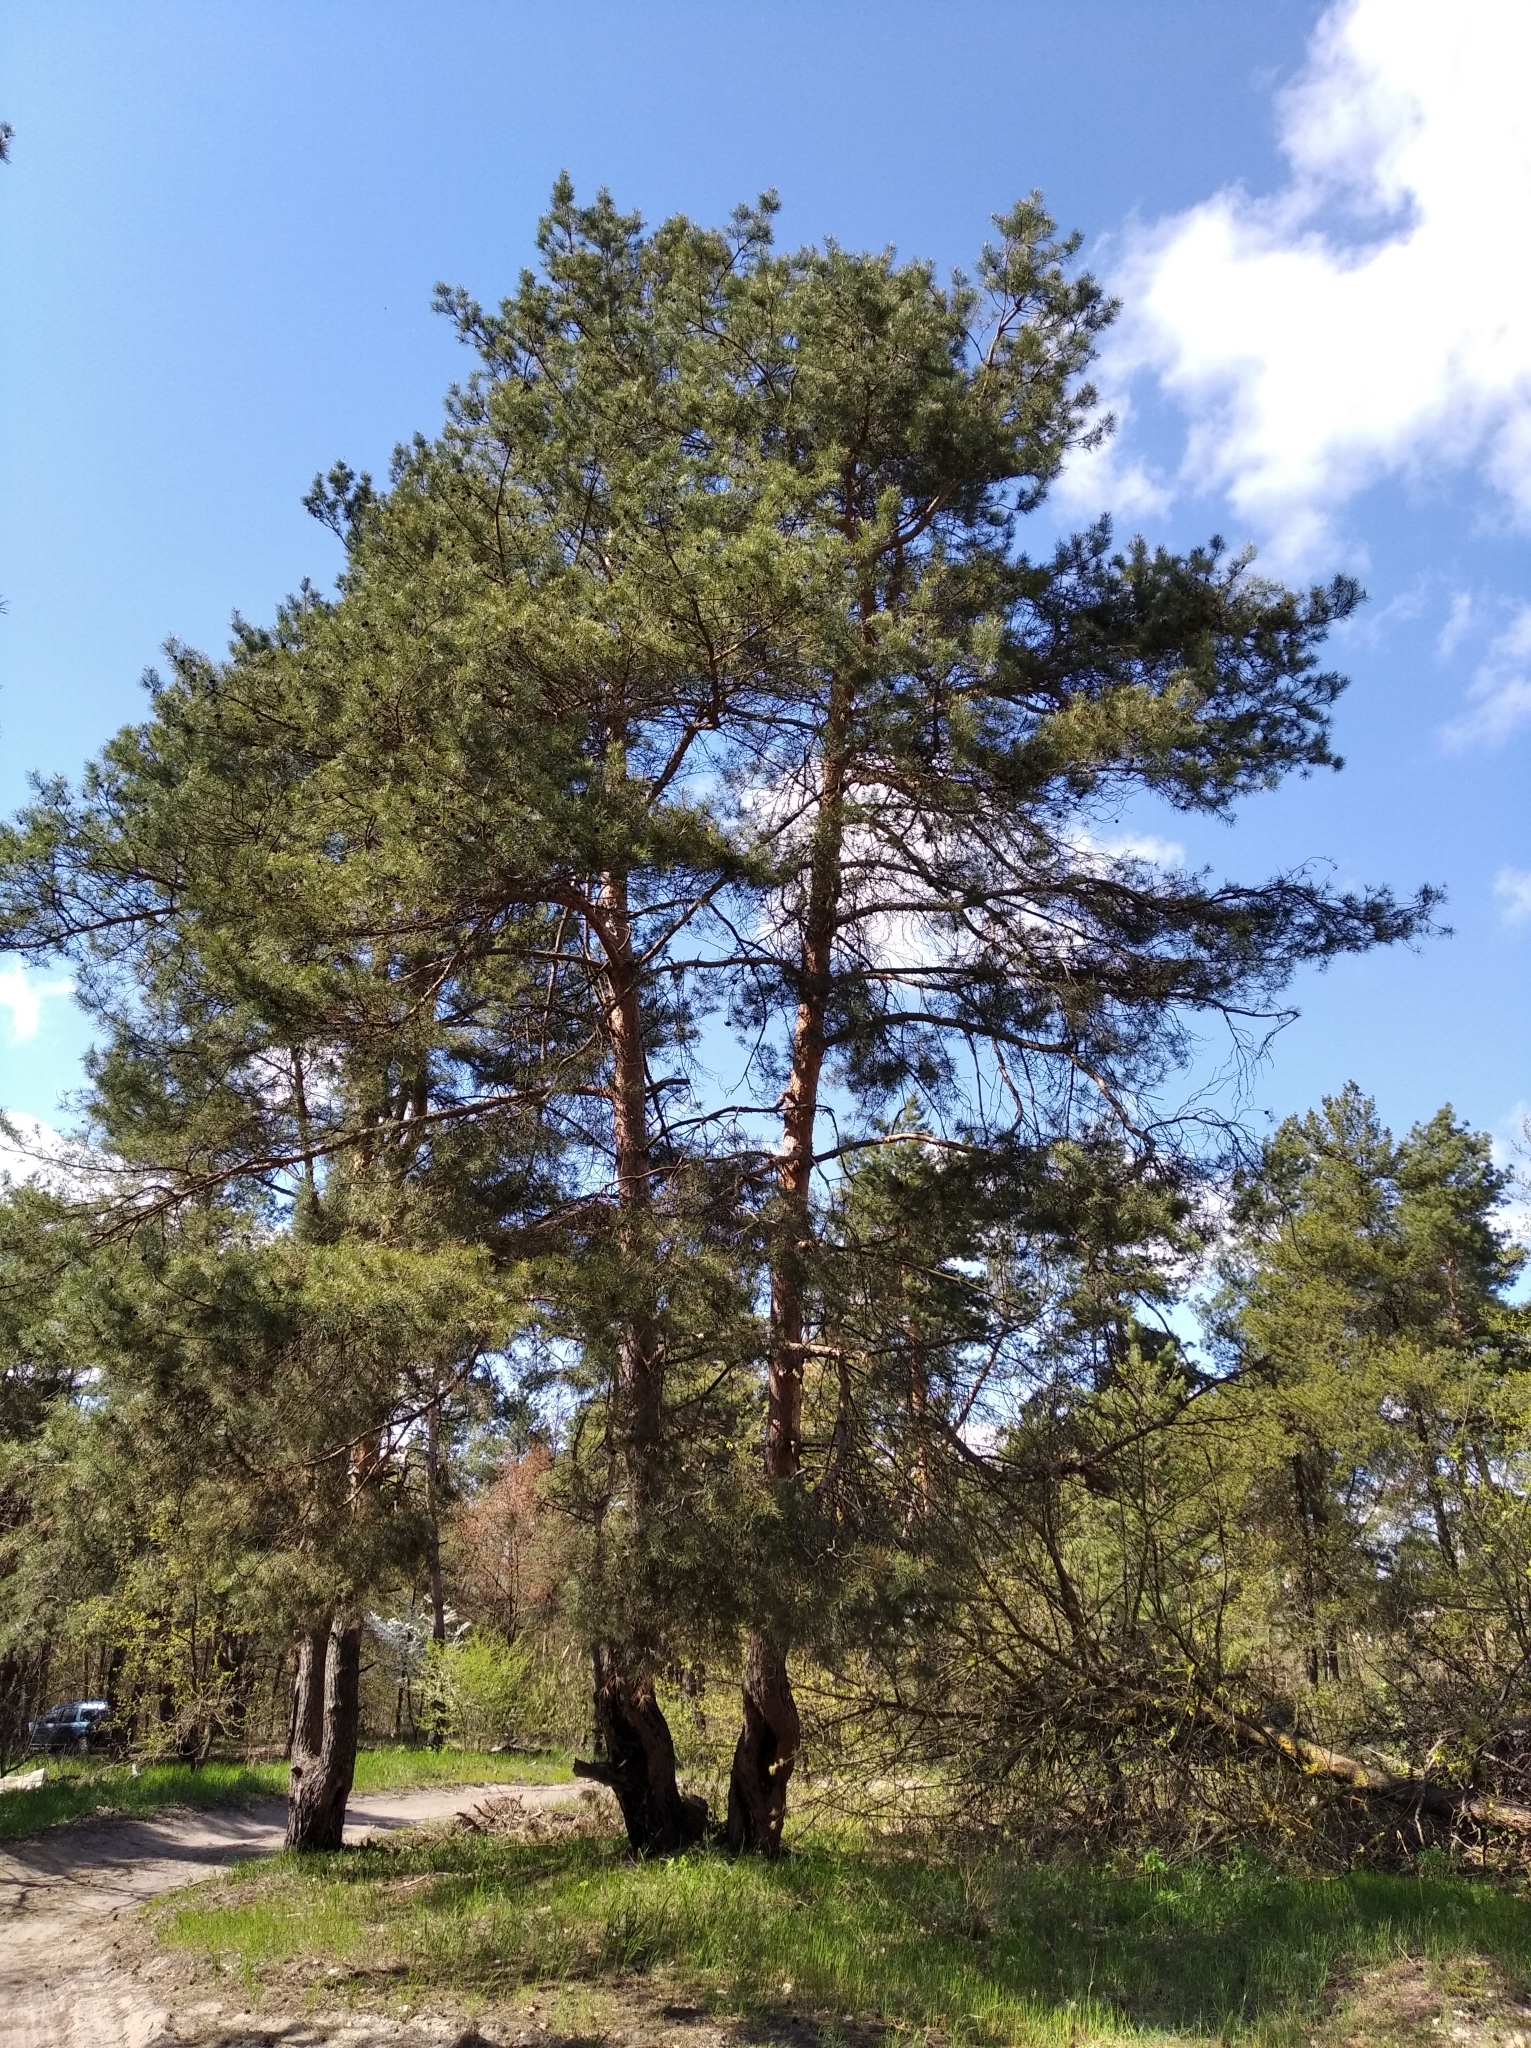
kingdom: Plantae
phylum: Tracheophyta
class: Pinopsida
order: Pinales
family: Pinaceae
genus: Pinus
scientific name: Pinus sylvestris
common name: Scots pine
